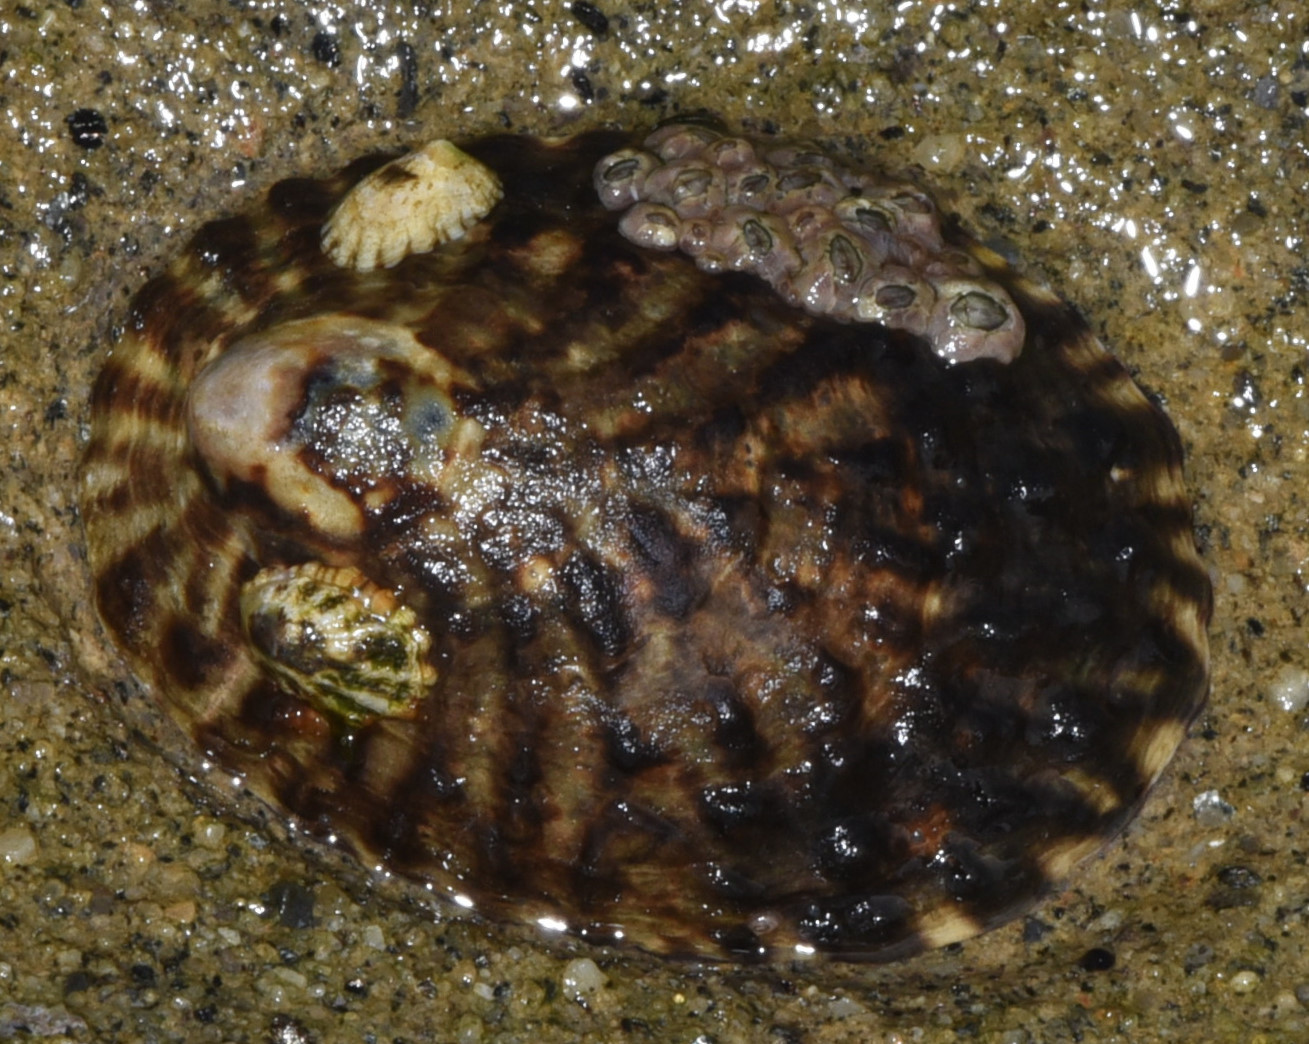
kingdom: Animalia
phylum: Mollusca
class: Gastropoda
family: Lottiidae
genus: Lottia
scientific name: Lottia gigantea
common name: Owl limpet
